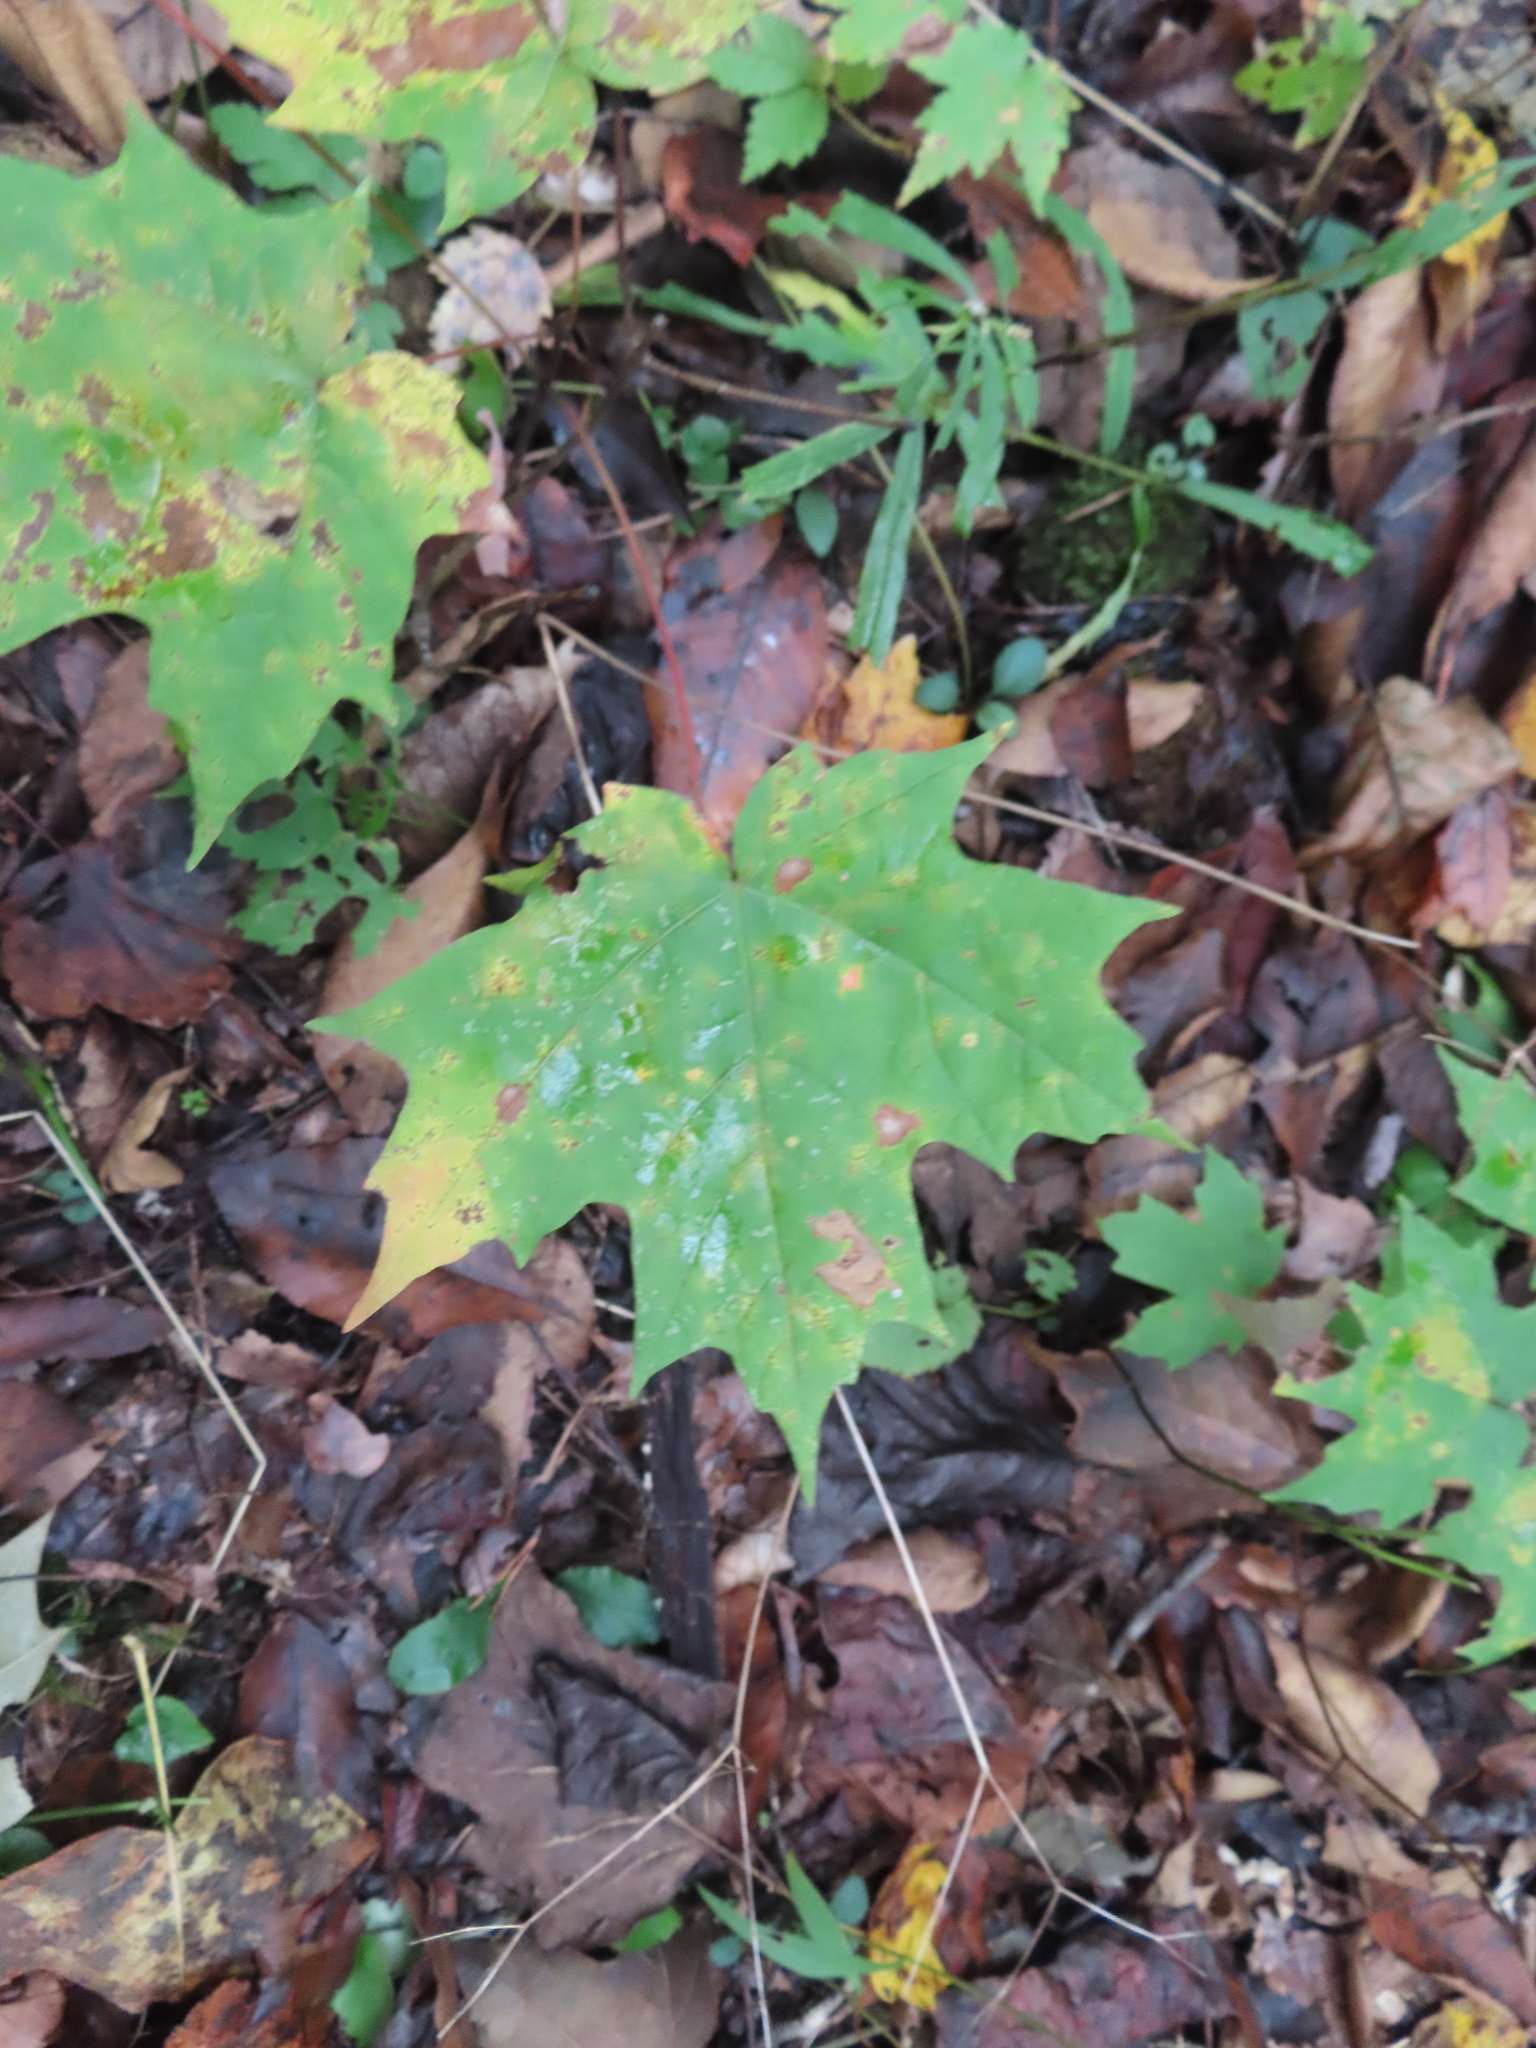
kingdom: Plantae
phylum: Tracheophyta
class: Magnoliopsida
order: Sapindales
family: Sapindaceae
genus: Acer
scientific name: Acer saccharum
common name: Sugar maple
